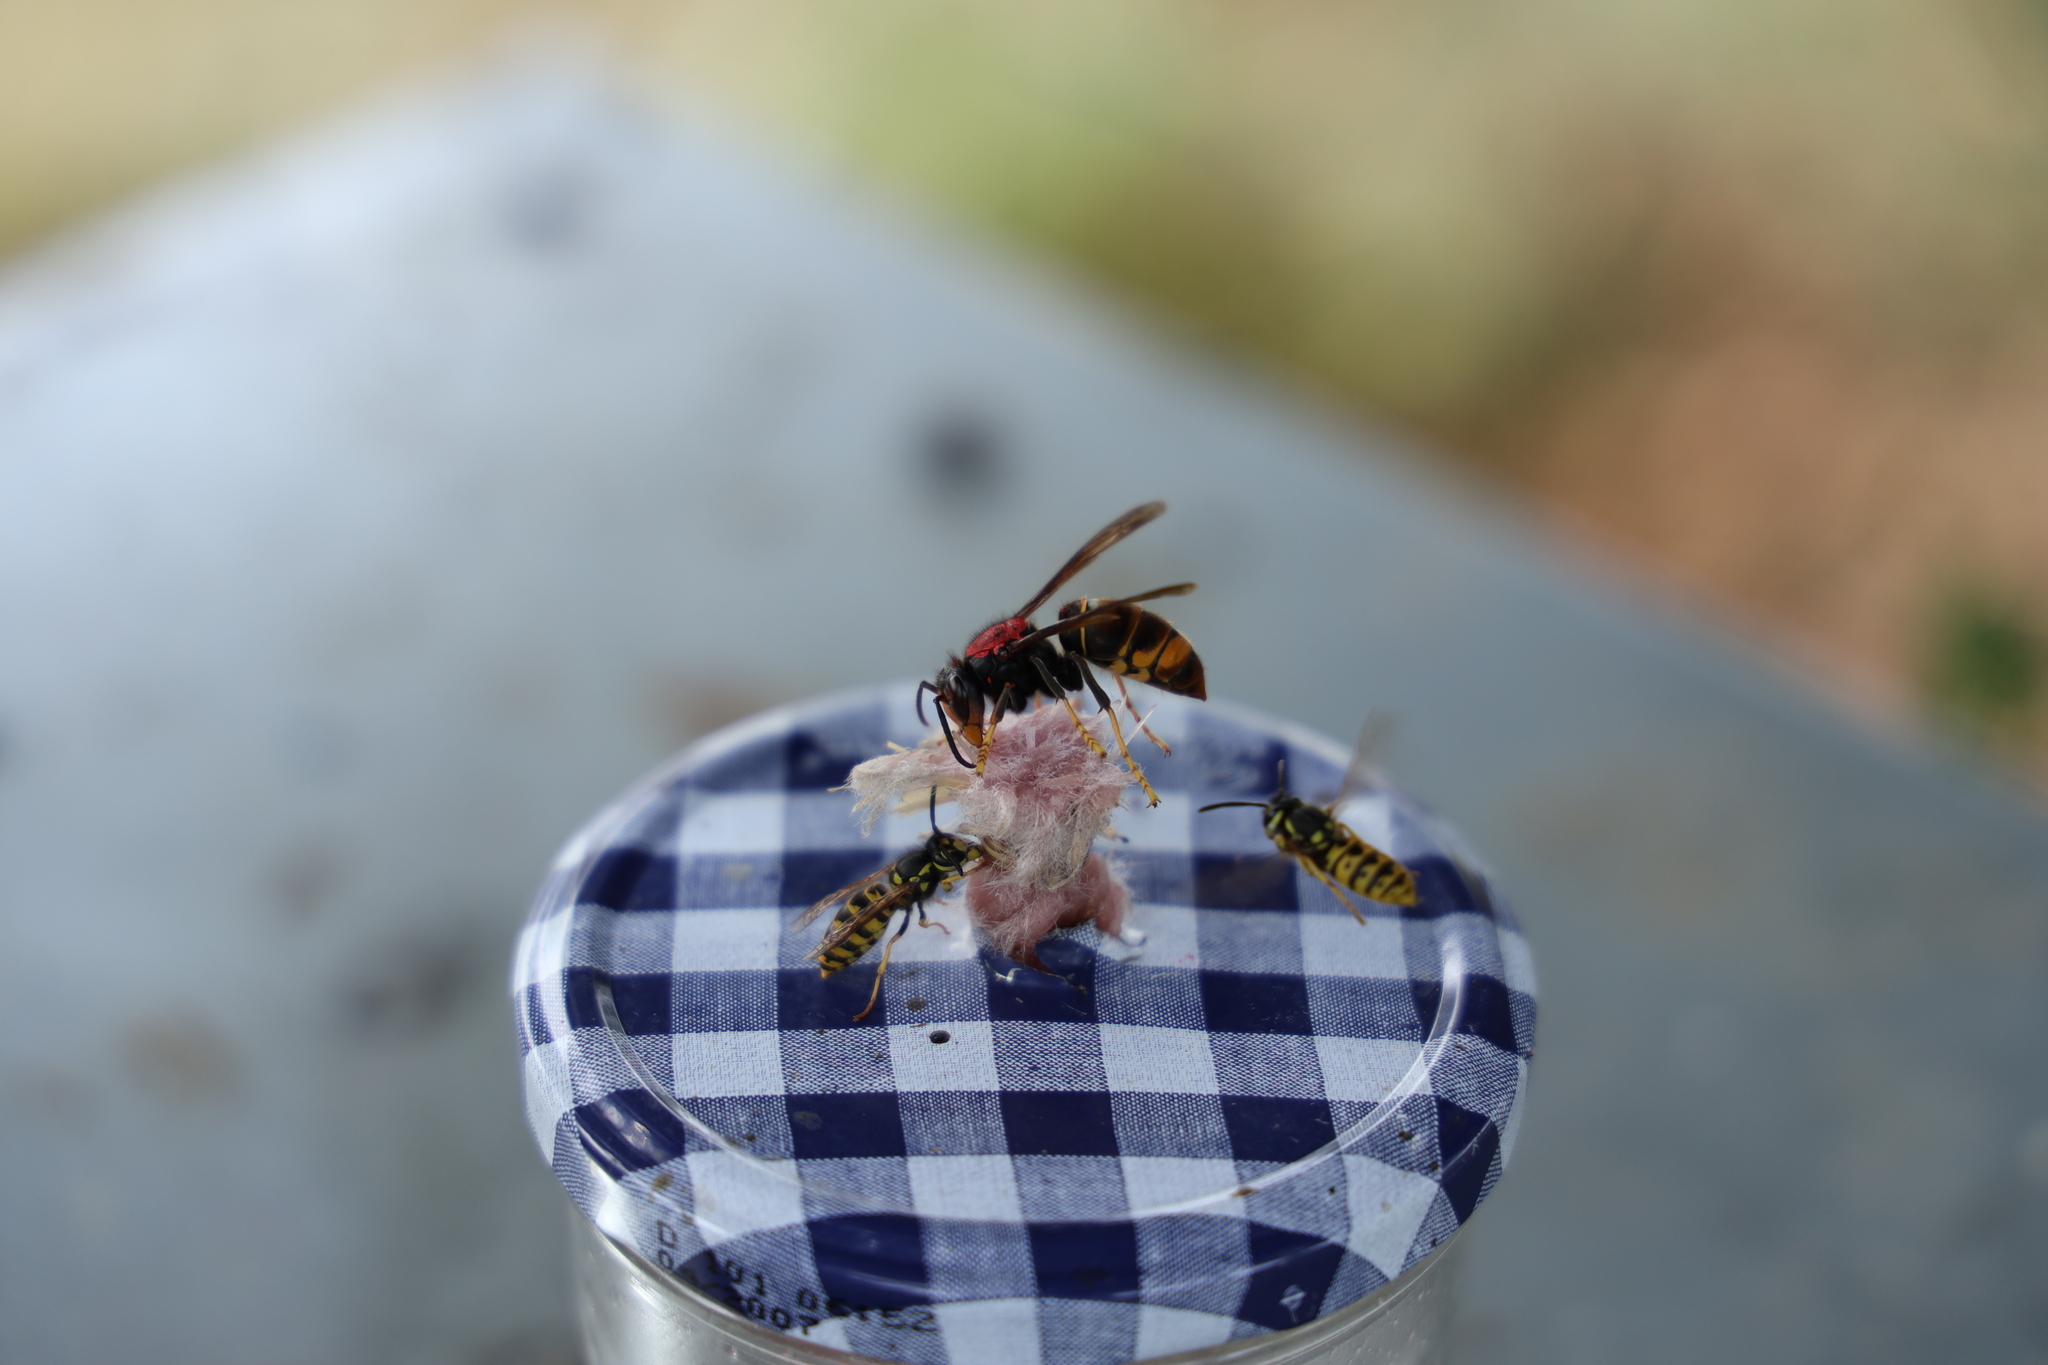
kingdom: Animalia
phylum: Arthropoda
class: Insecta
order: Hymenoptera
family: Vespidae
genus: Vespa
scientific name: Vespa velutina
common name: Asian hornet
